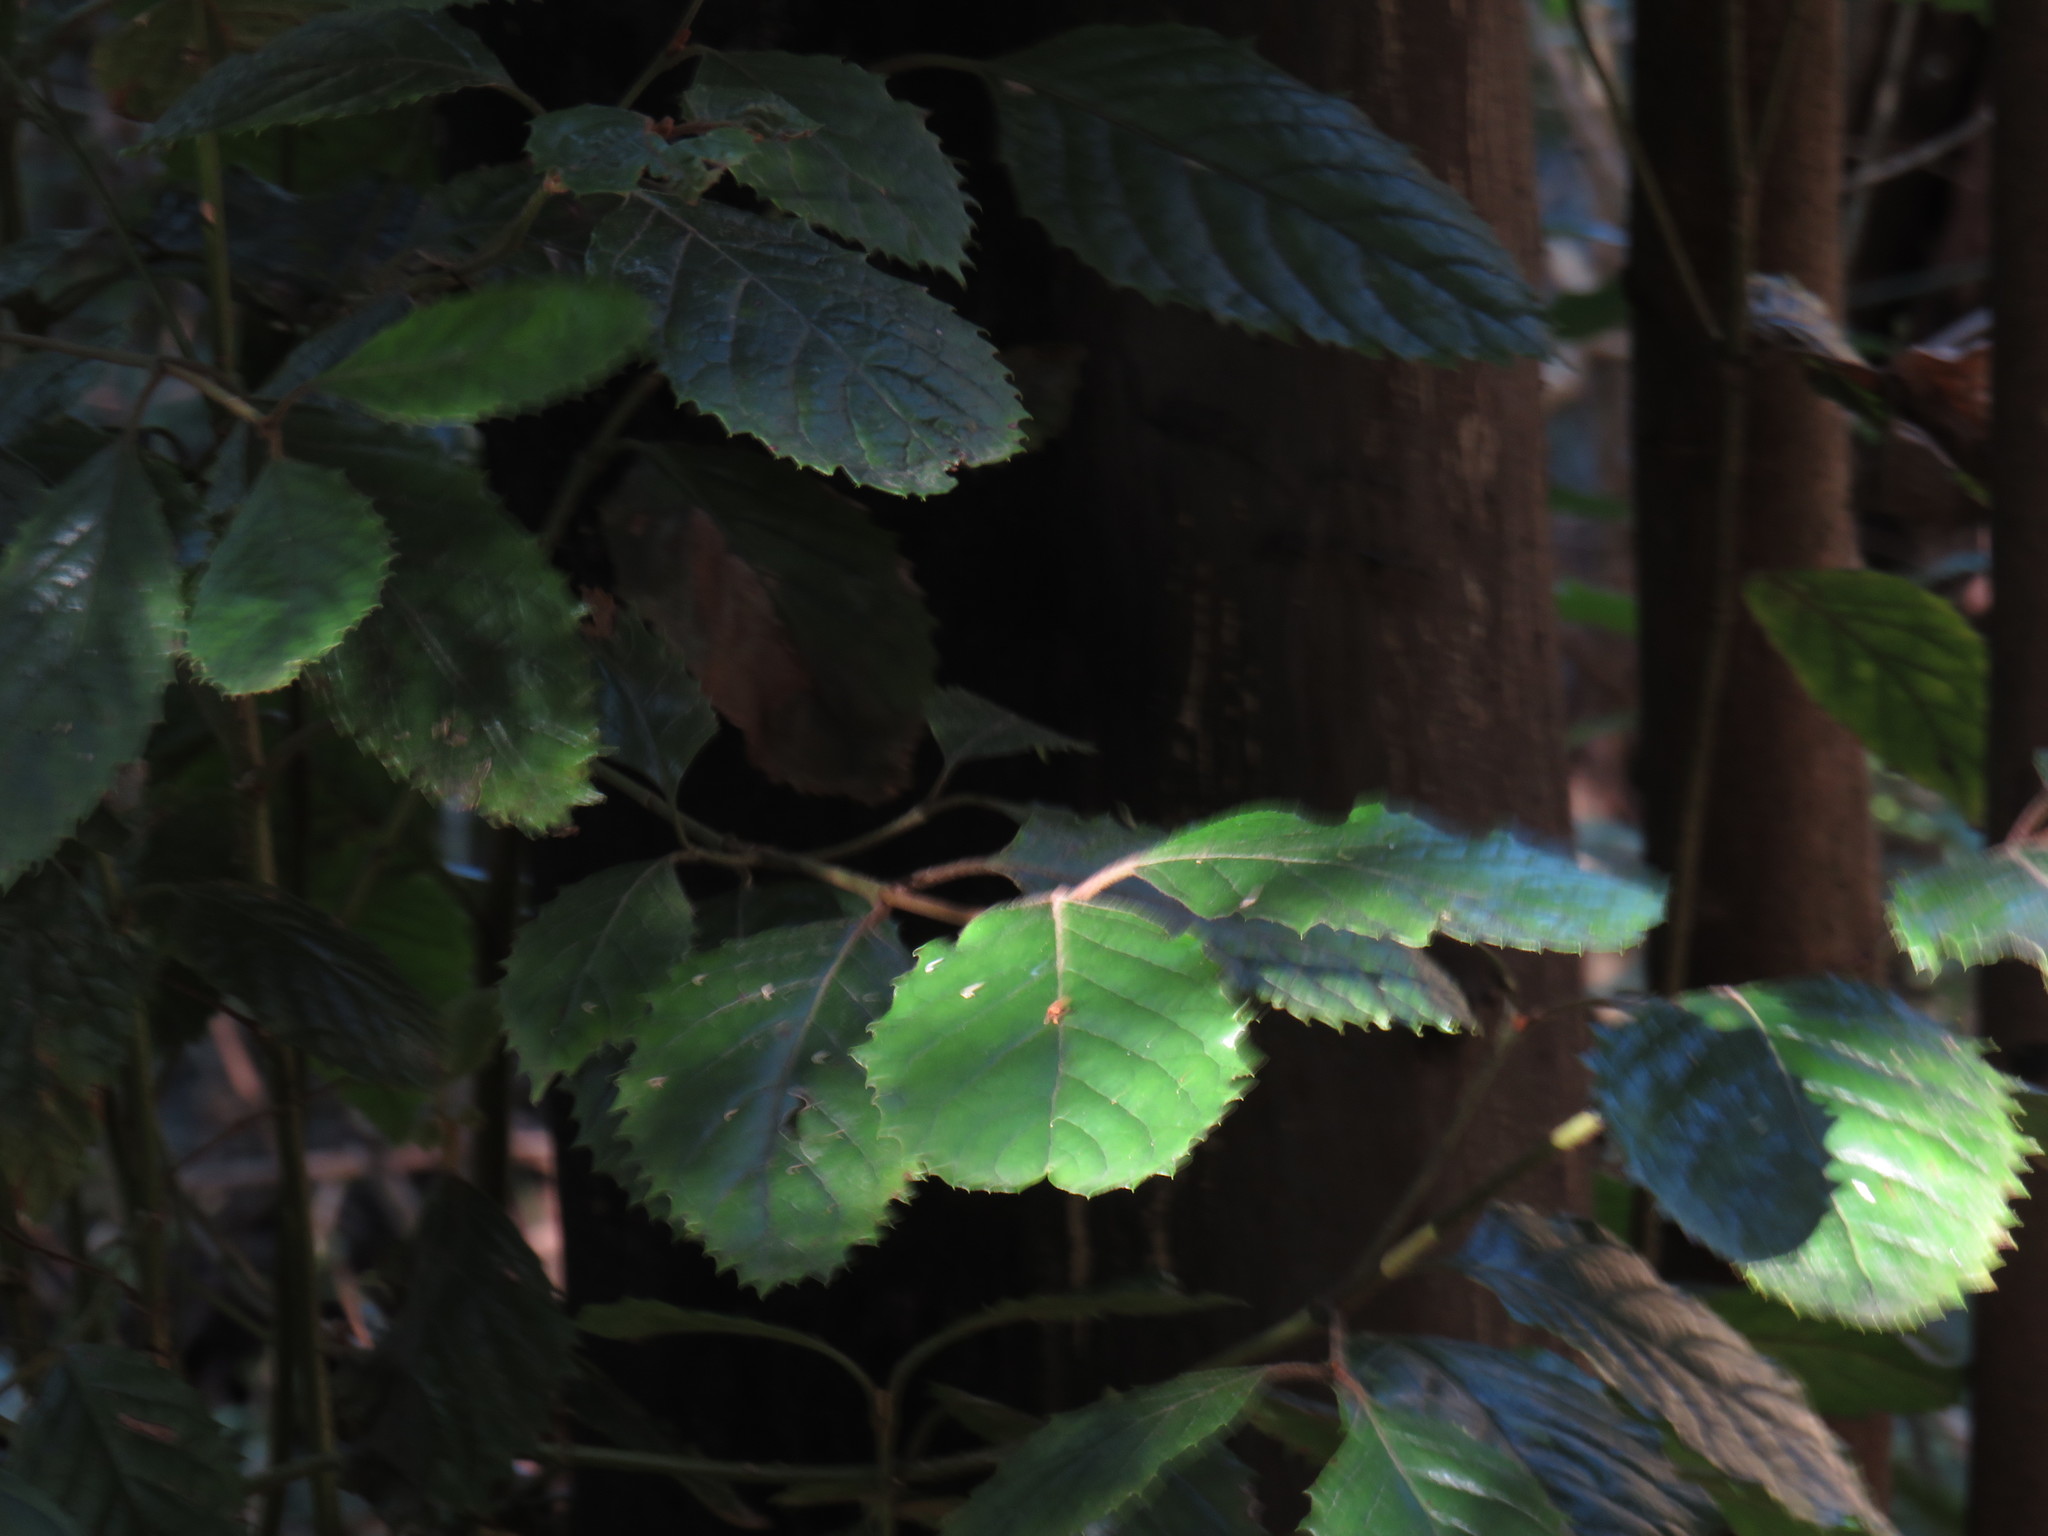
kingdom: Plantae
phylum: Tracheophyta
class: Magnoliopsida
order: Cornales
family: Curtisiaceae
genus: Curtisia
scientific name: Curtisia dentata
